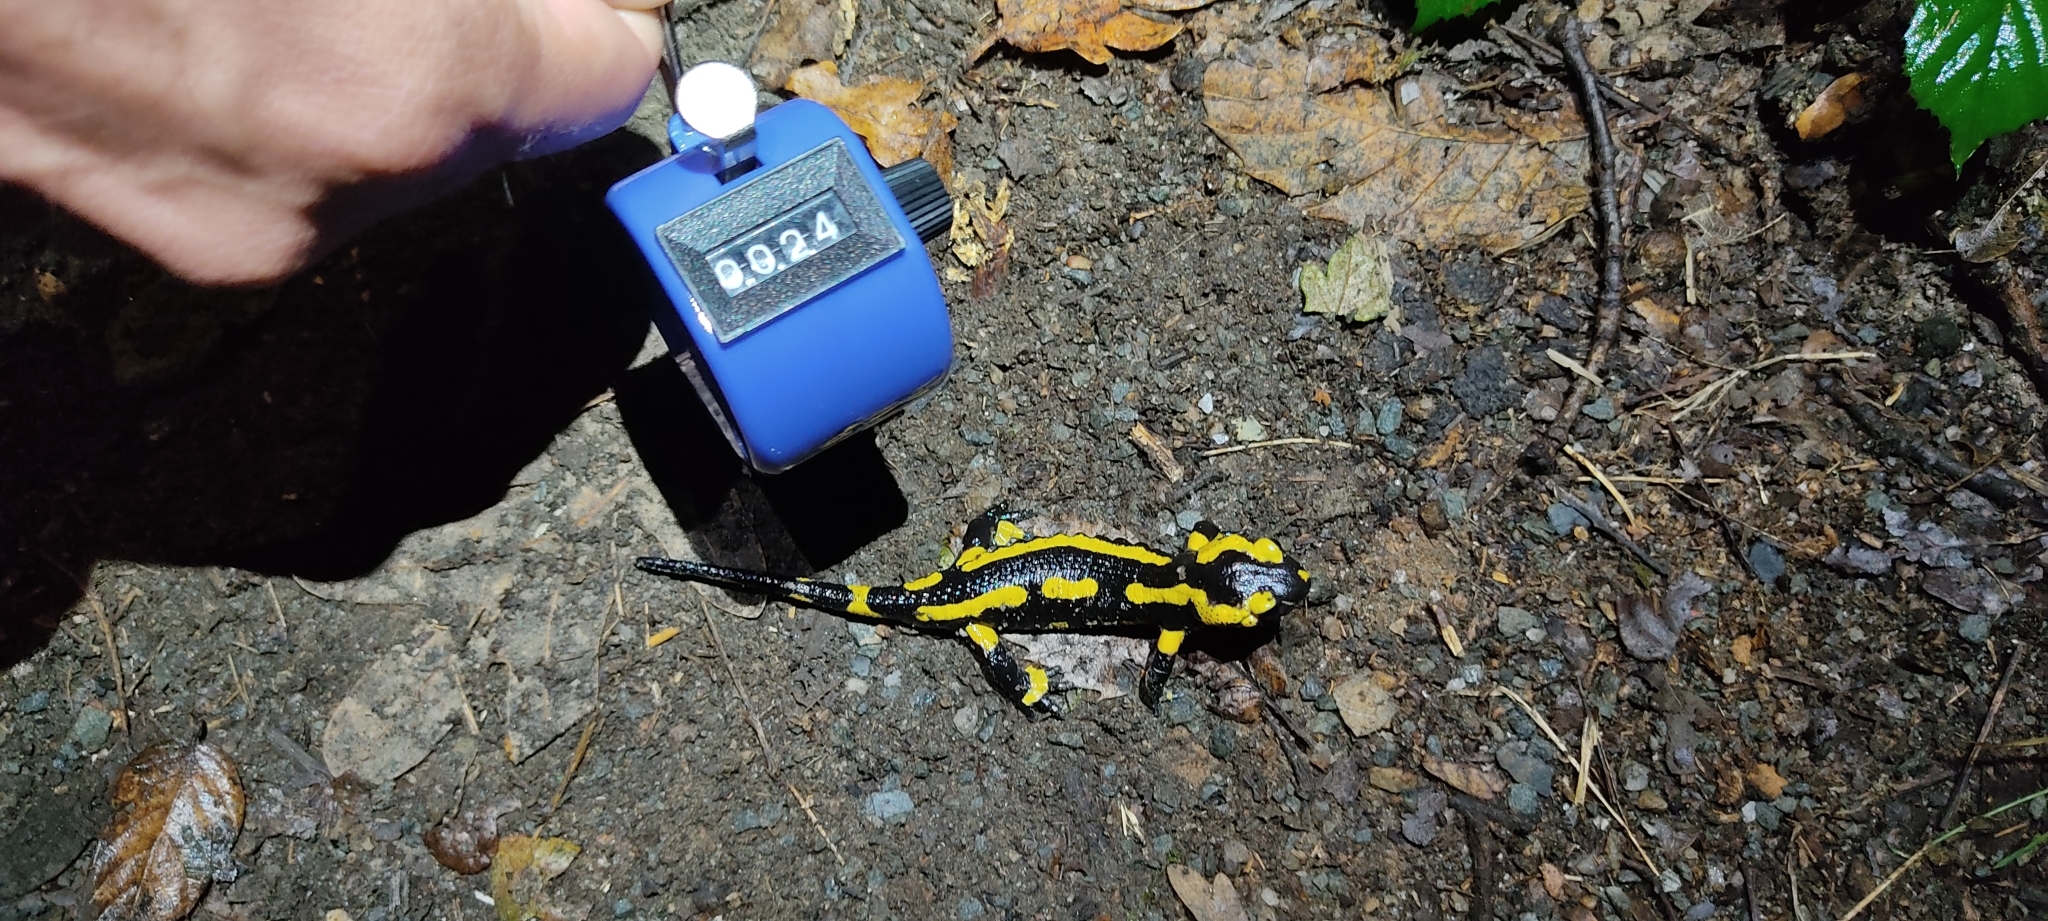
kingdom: Animalia
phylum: Chordata
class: Amphibia
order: Caudata
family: Salamandridae
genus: Salamandra
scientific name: Salamandra salamandra
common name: Fire salamander
